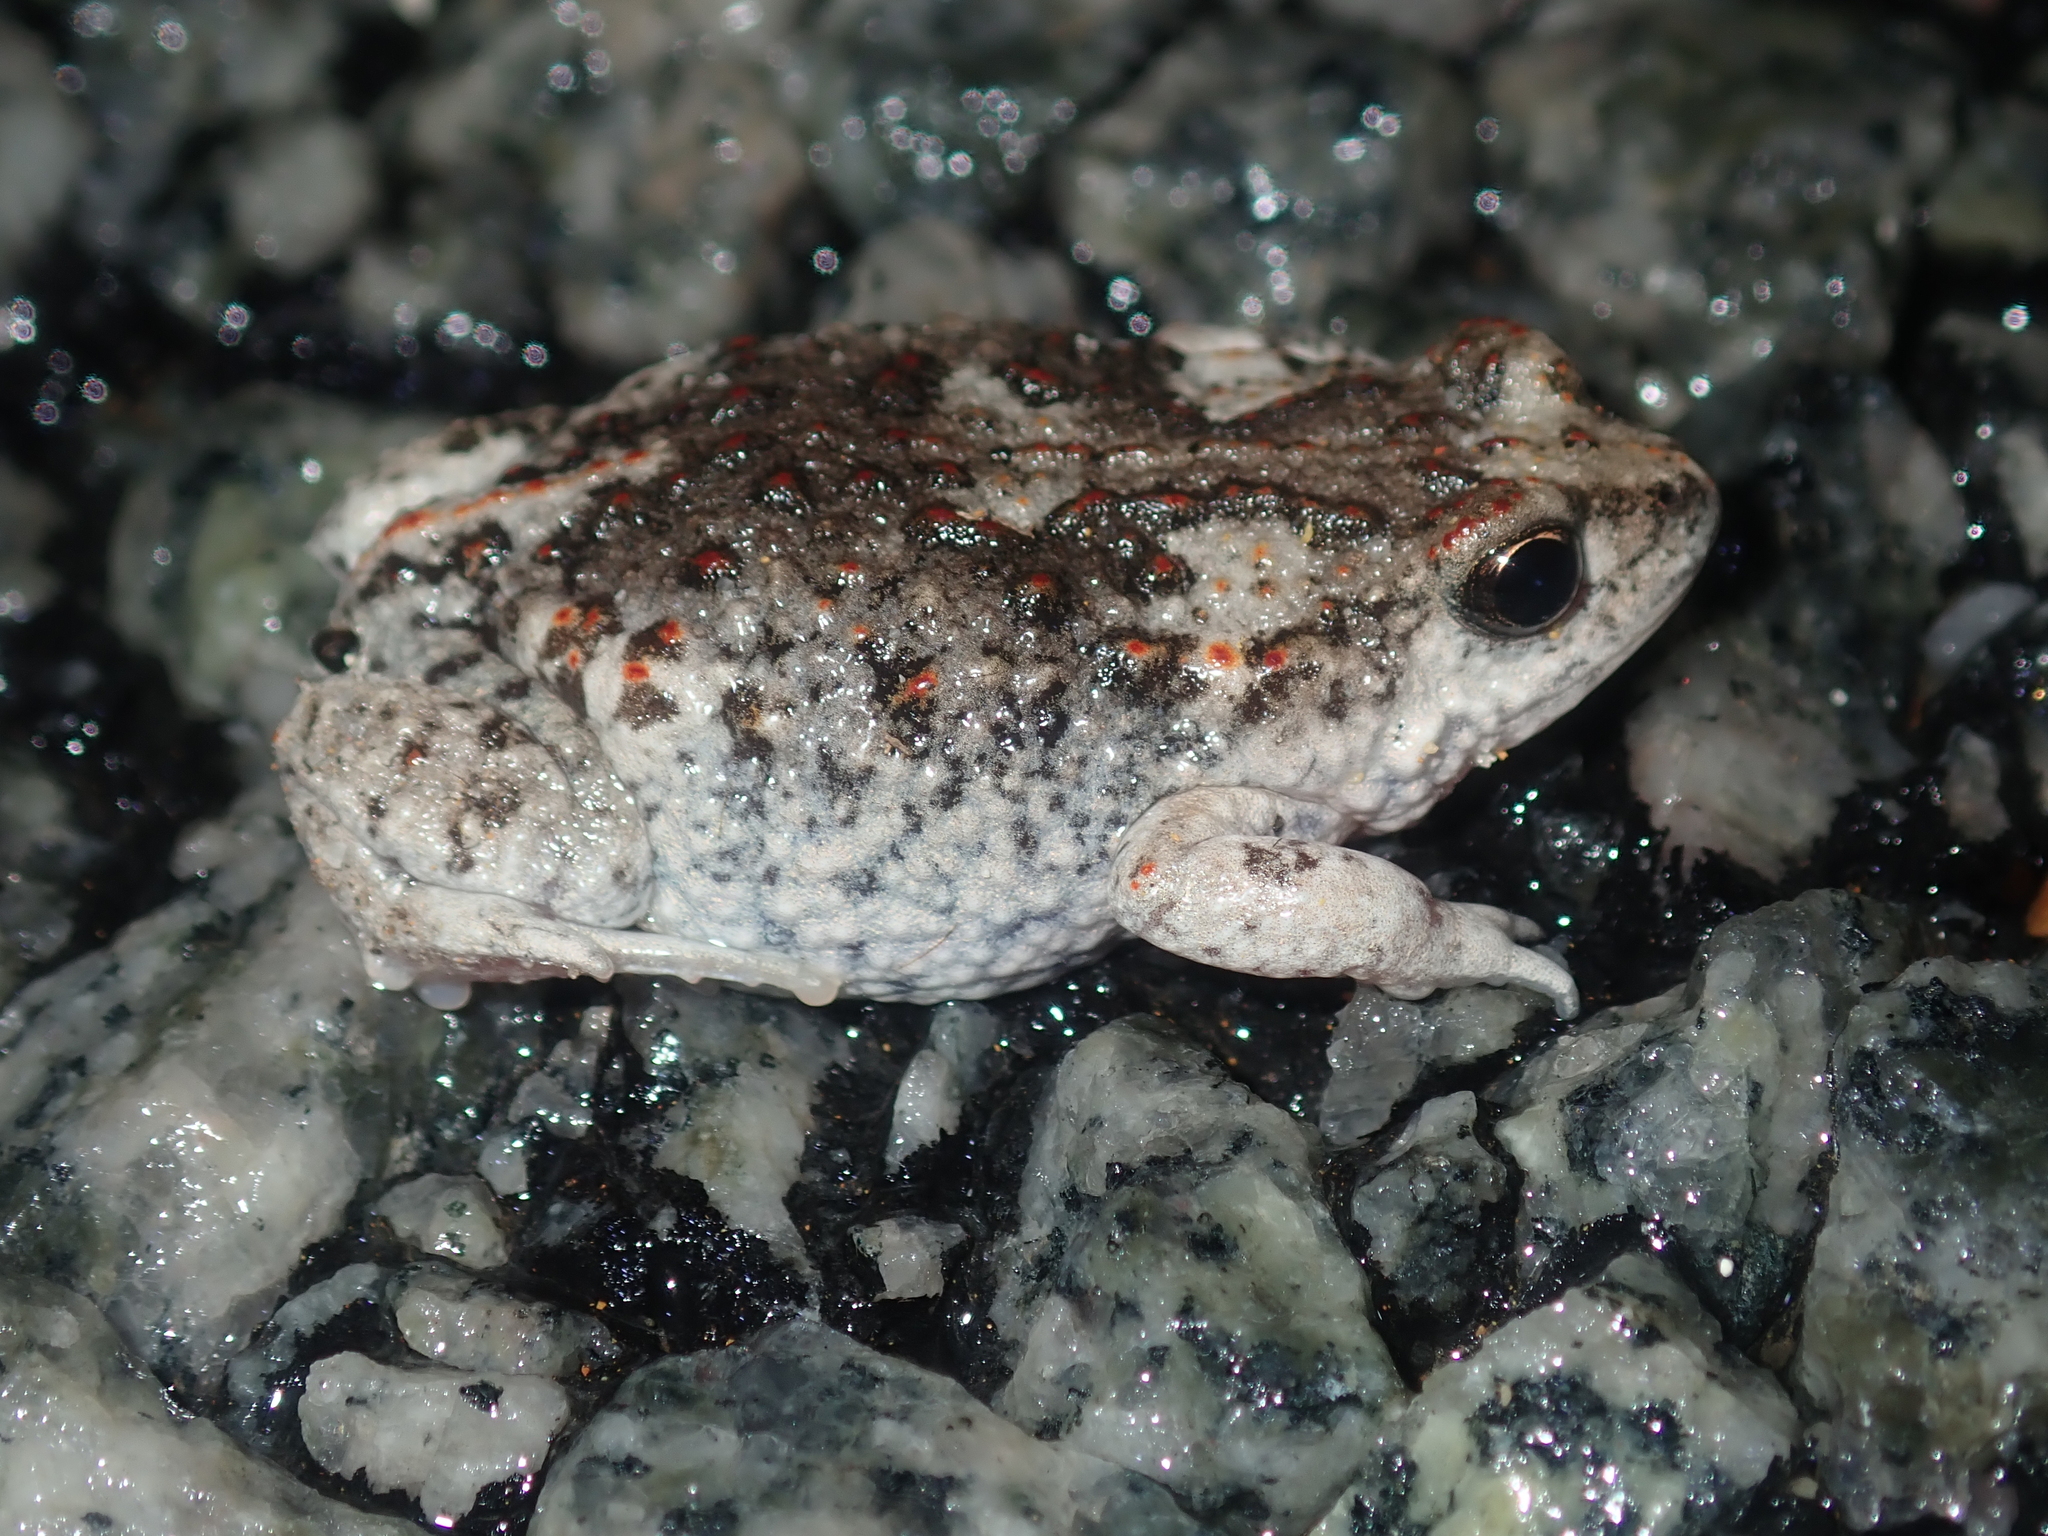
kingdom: Animalia
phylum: Chordata
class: Amphibia
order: Anura
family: Myobatrachidae
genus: Pseudophryne
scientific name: Pseudophryne guentheri
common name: Günther’s toadlet
